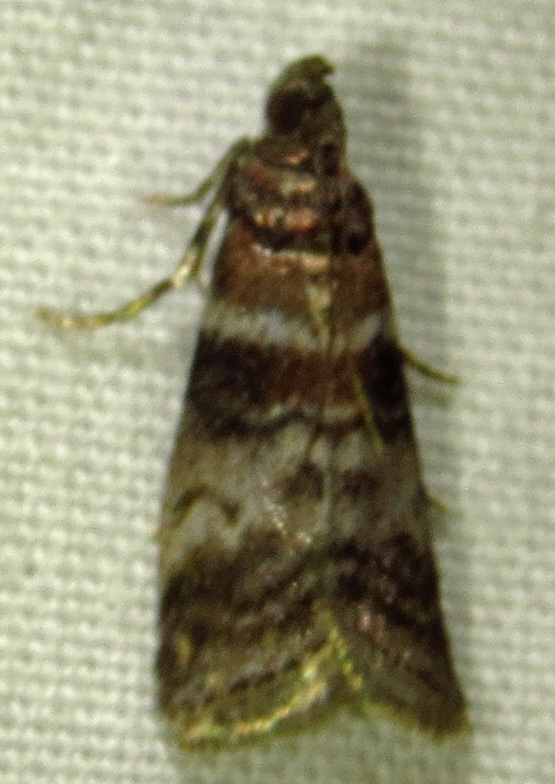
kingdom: Animalia
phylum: Arthropoda
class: Insecta
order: Lepidoptera
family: Pyralidae
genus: Sciota
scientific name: Sciota uvinella
